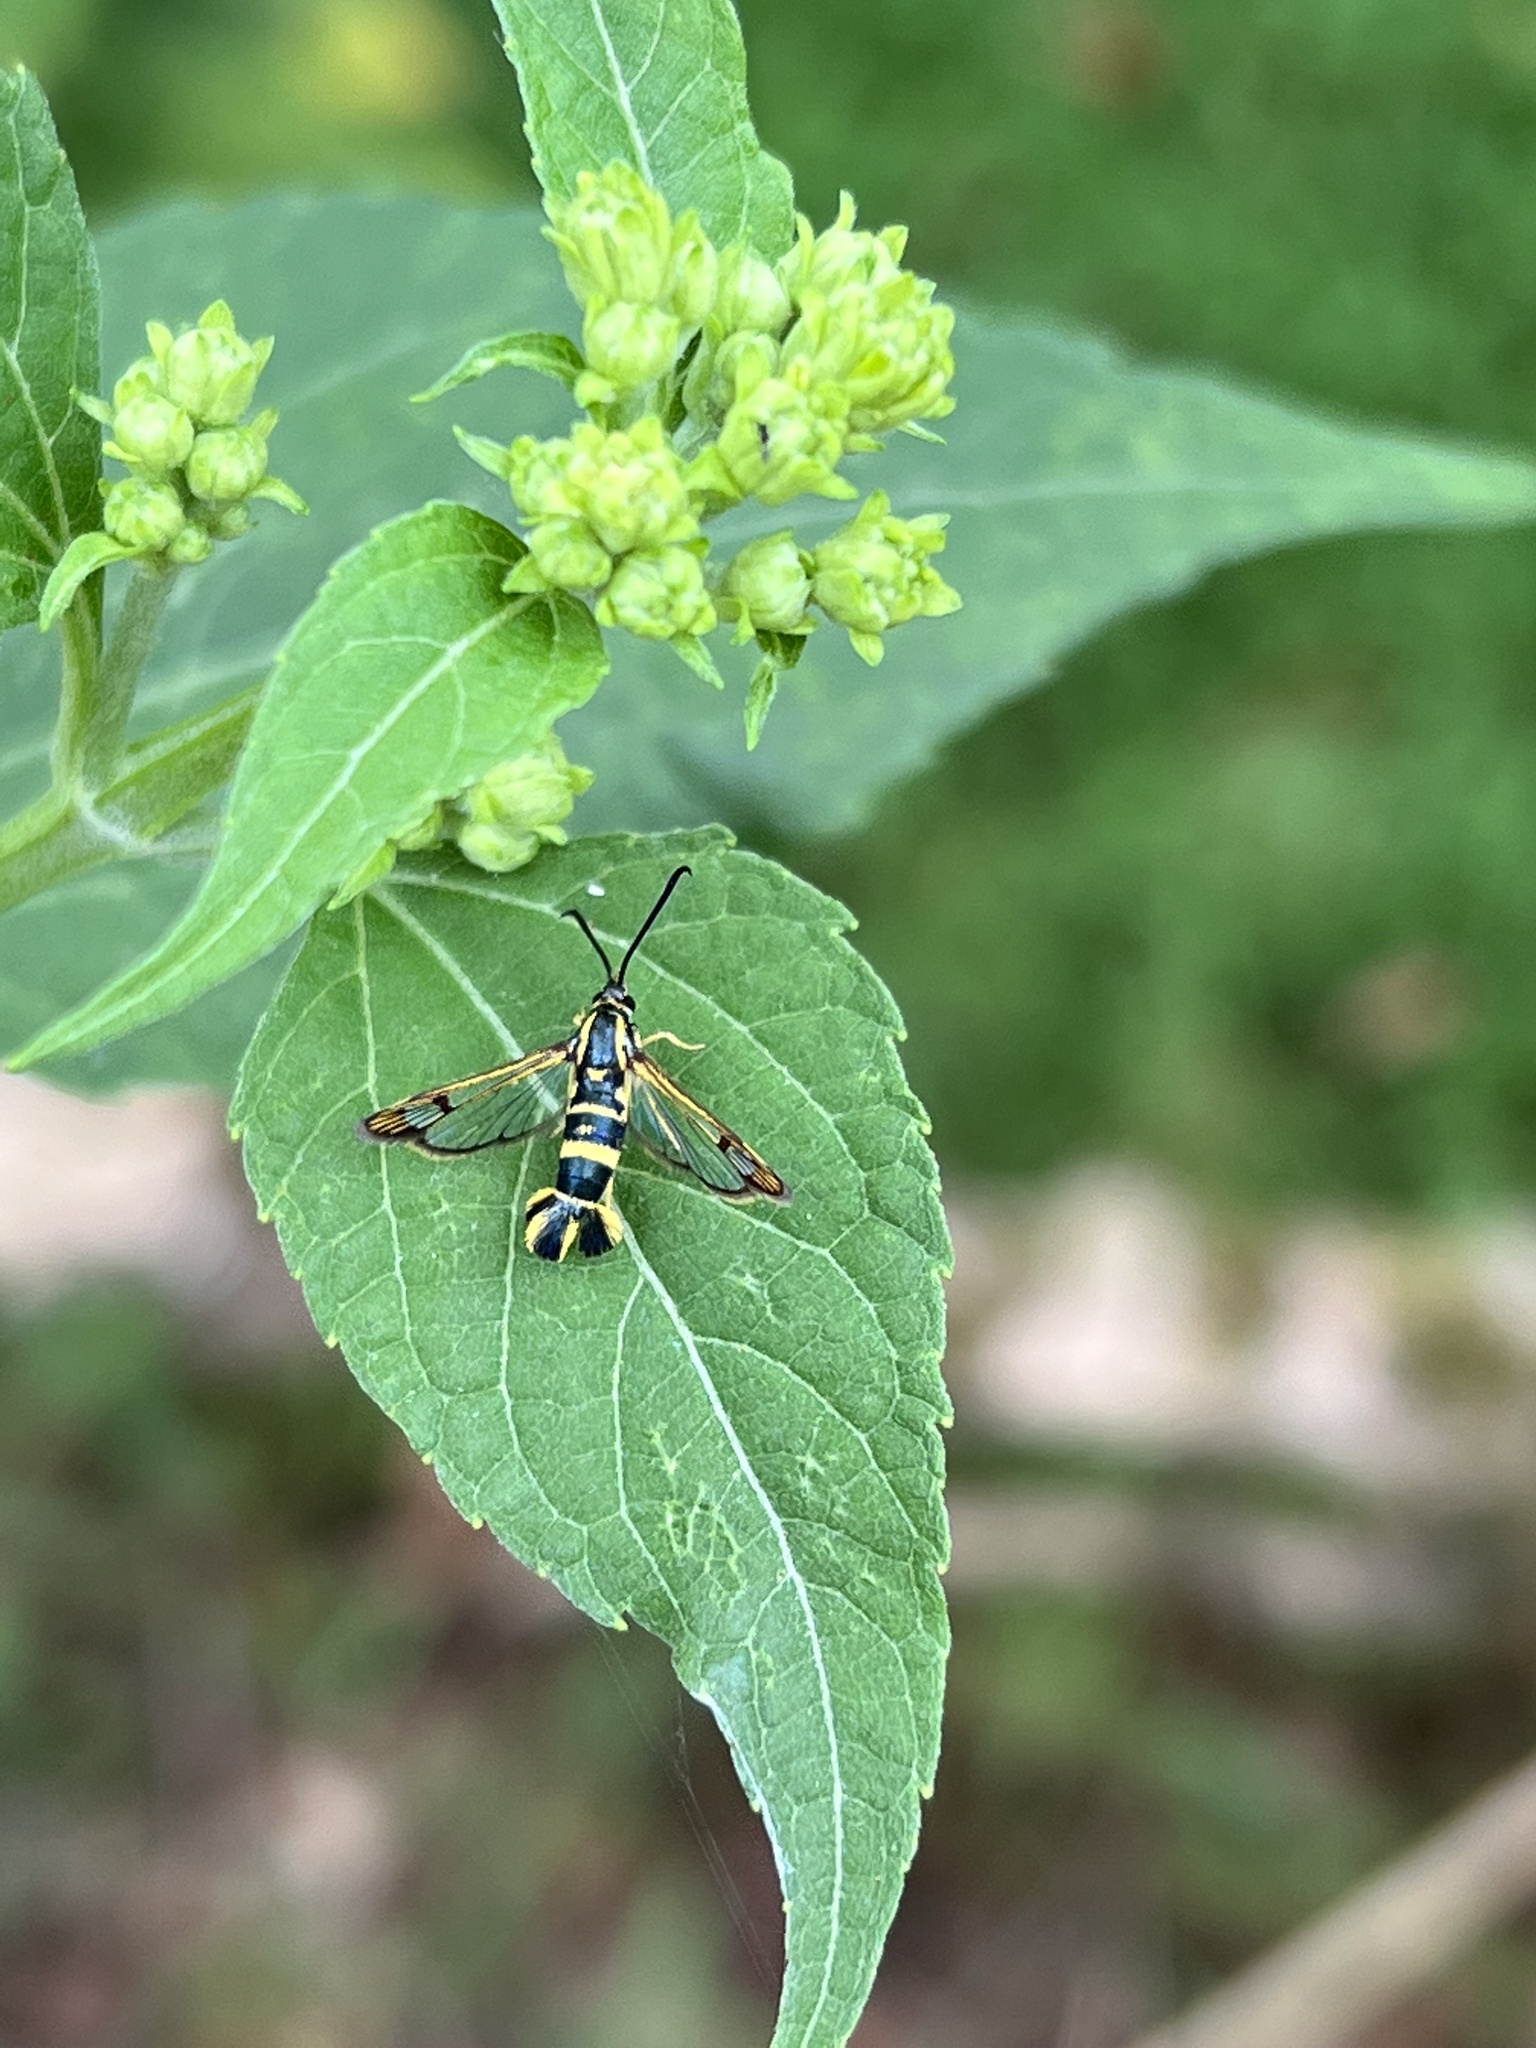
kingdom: Animalia
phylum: Arthropoda
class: Insecta
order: Lepidoptera
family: Sesiidae
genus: Synanthedon
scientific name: Synanthedon scitula
